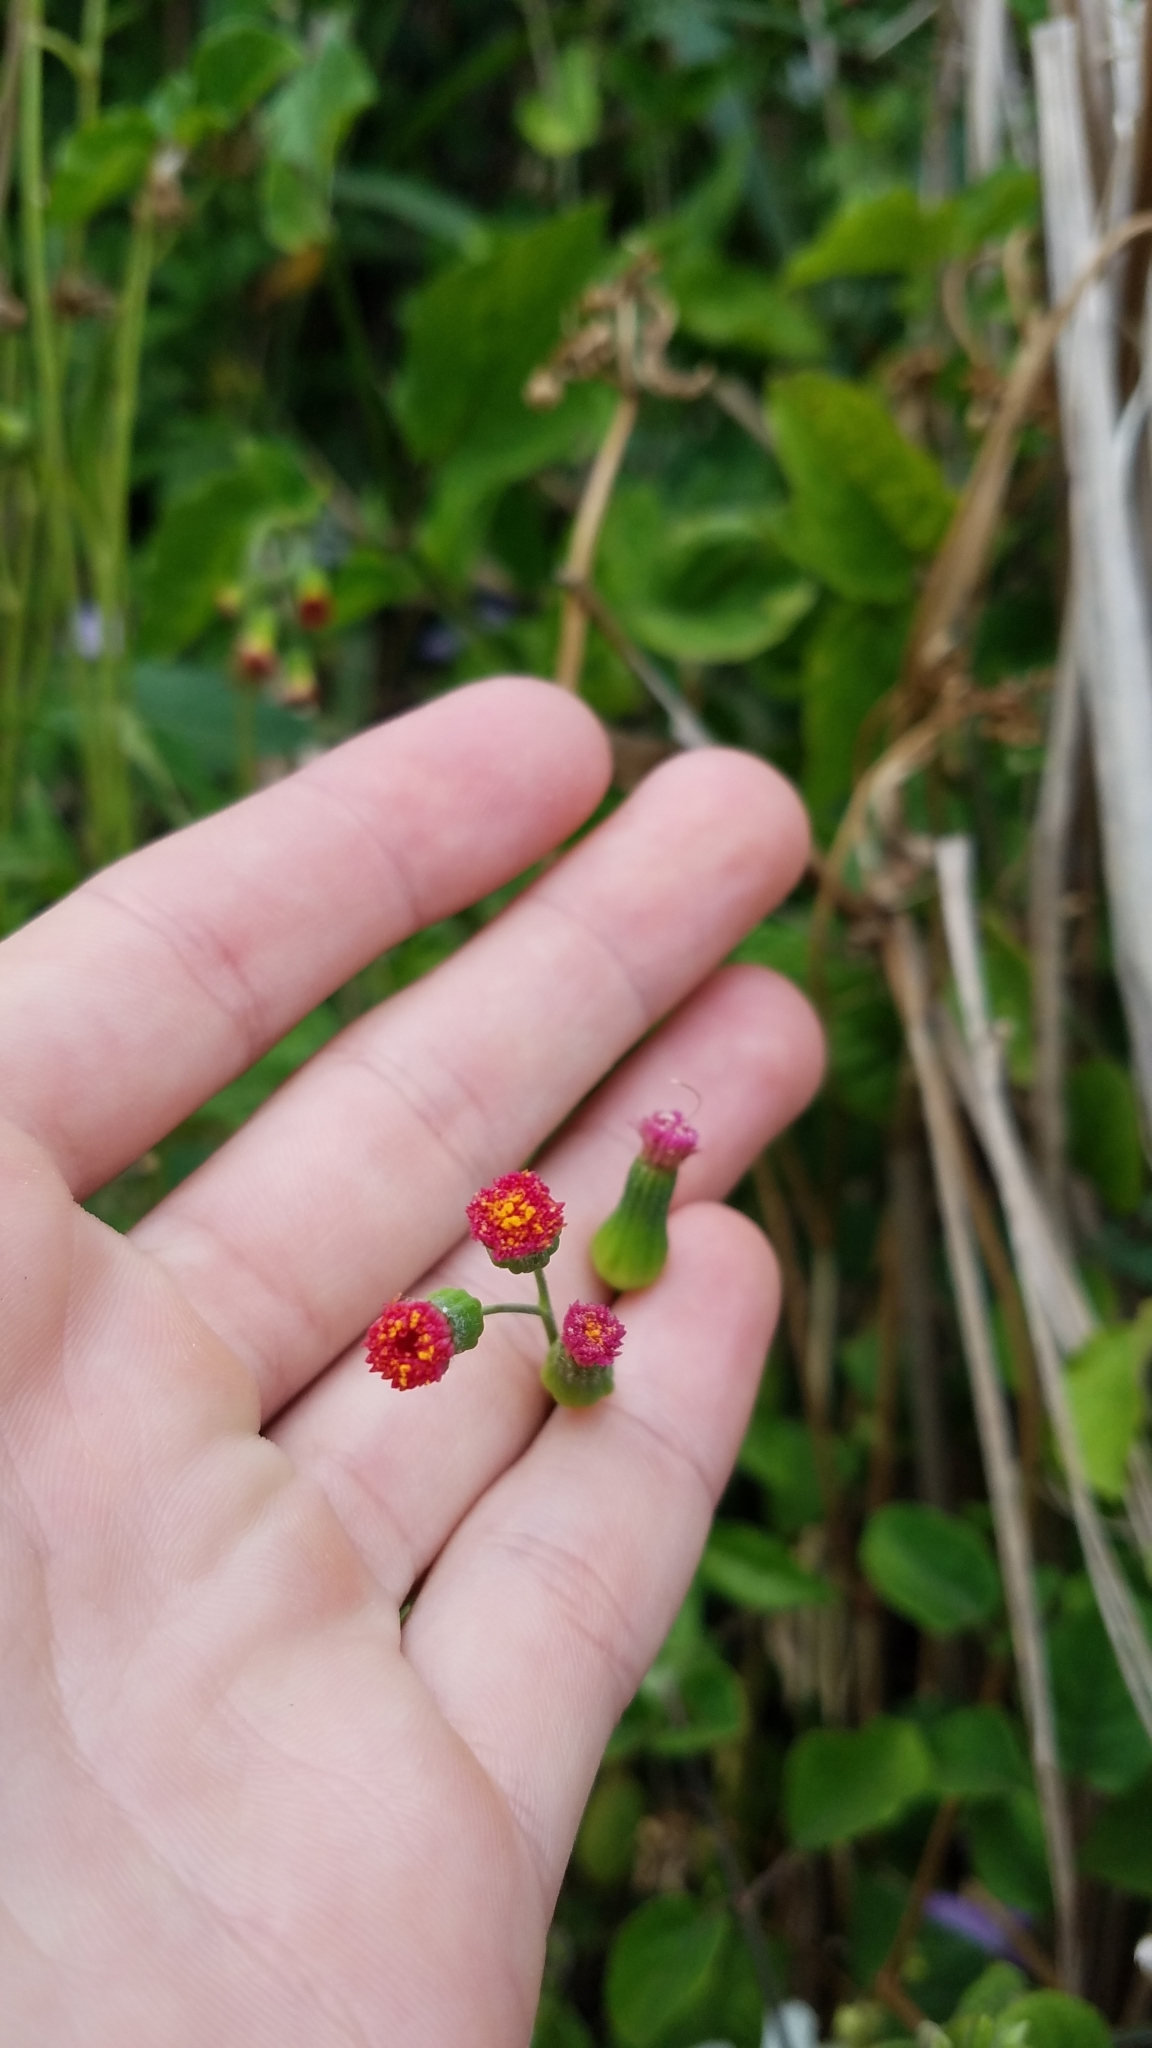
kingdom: Plantae
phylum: Tracheophyta
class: Magnoliopsida
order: Asterales
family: Asteraceae
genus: Emilia
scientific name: Emilia fosbergii
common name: Florida tasselflower
